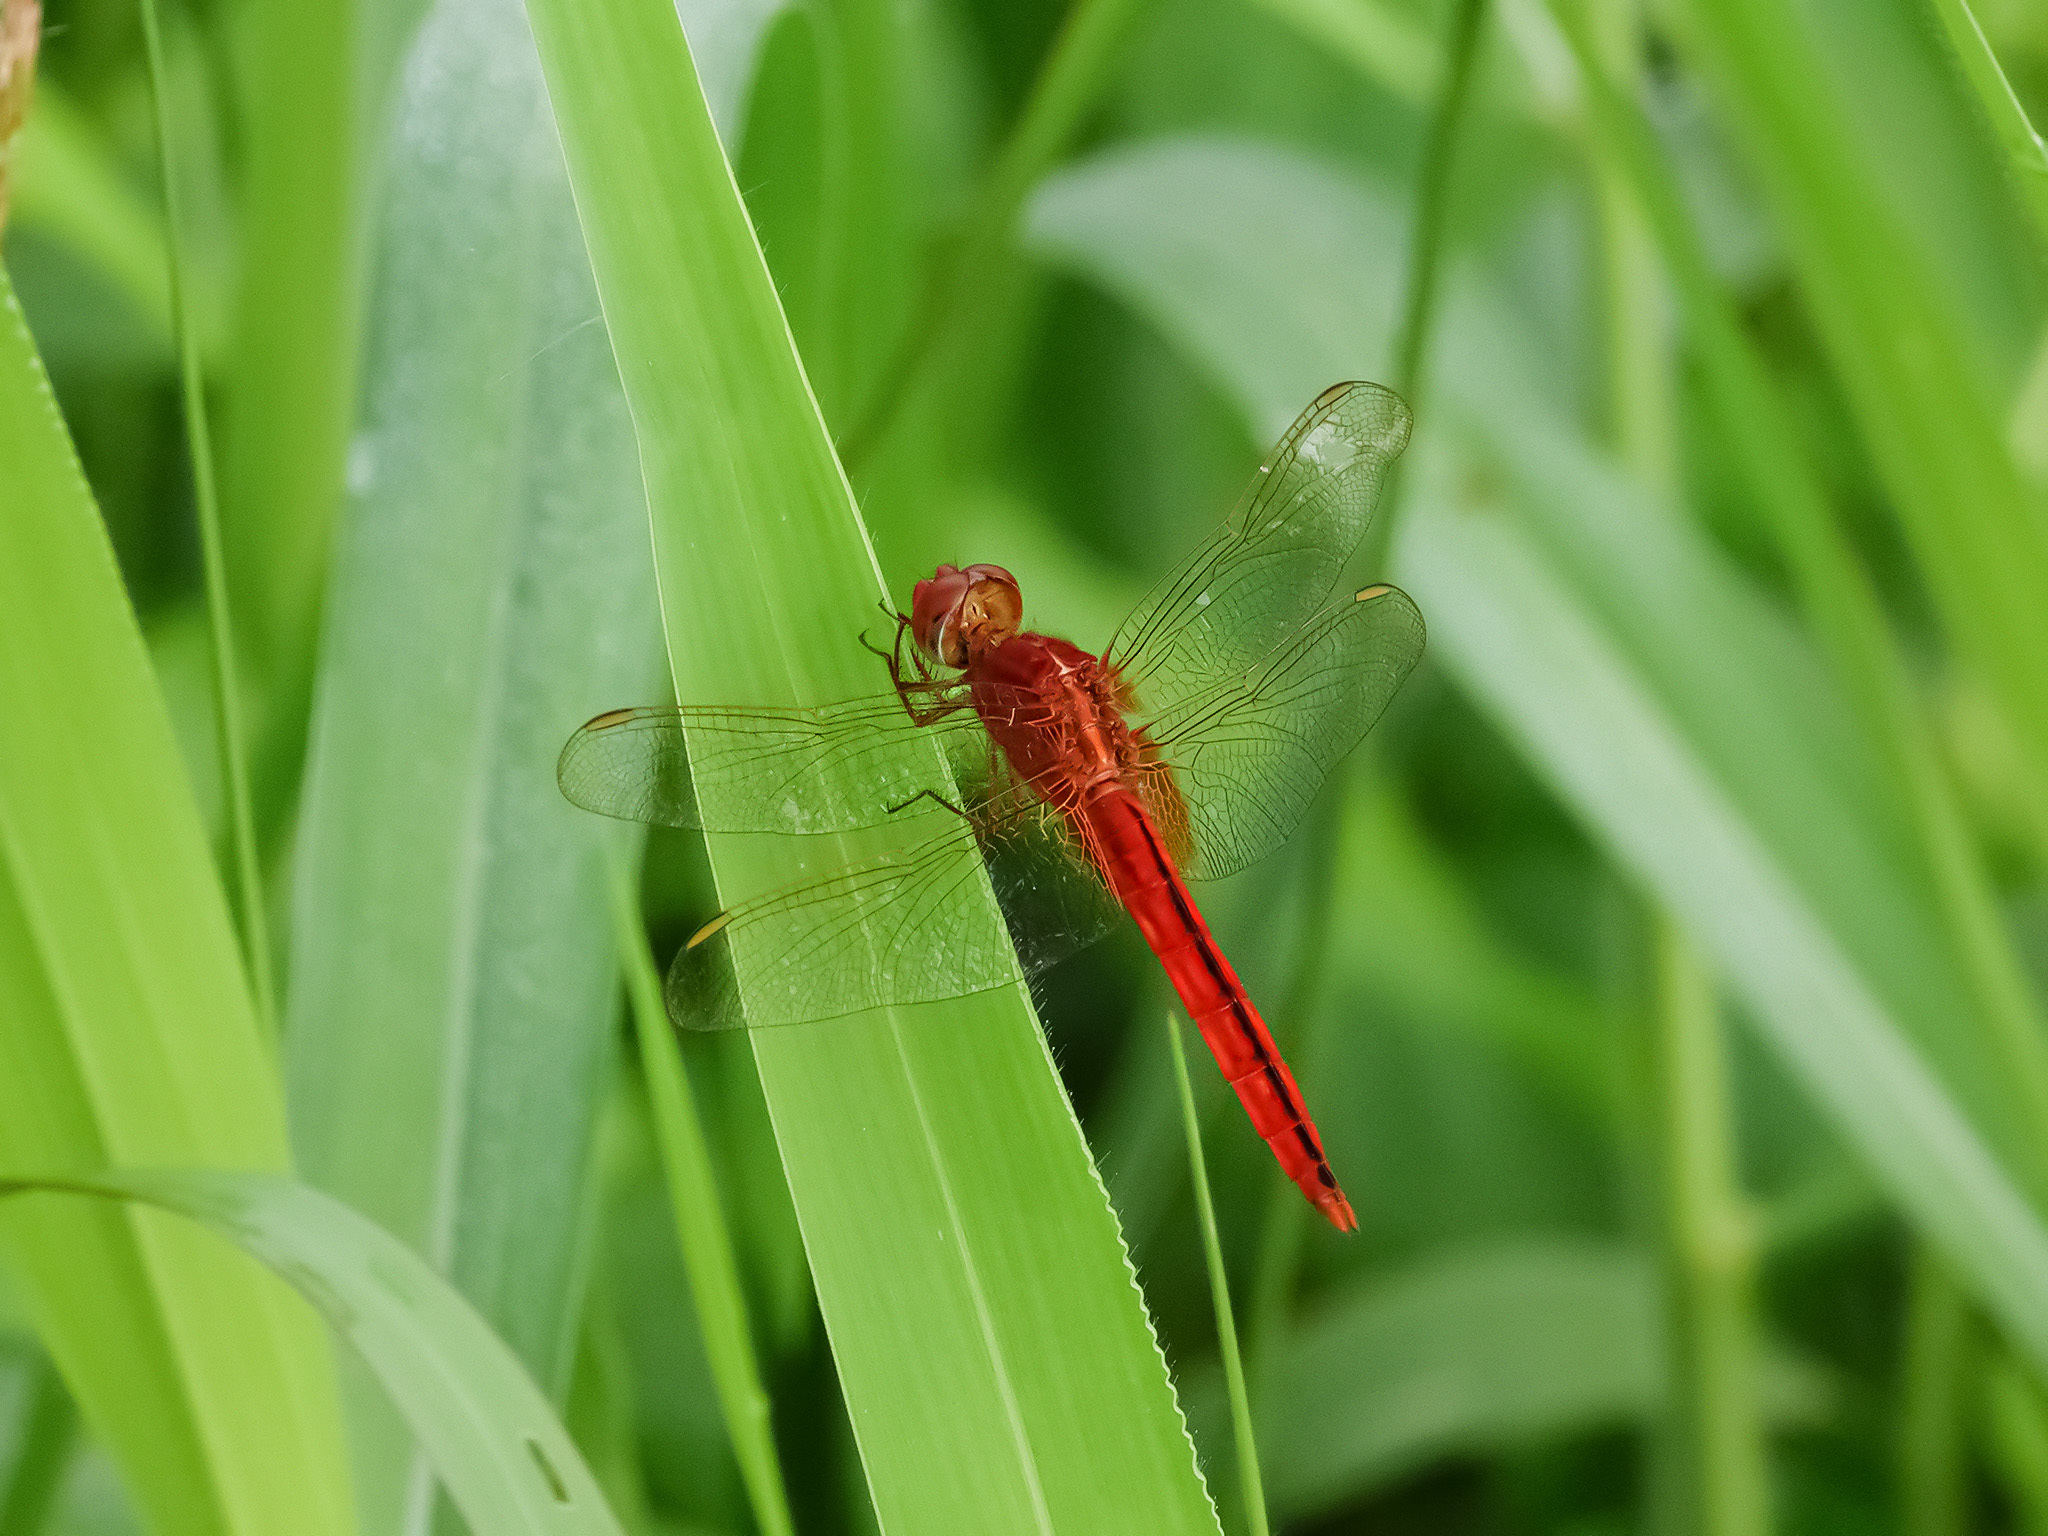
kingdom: Animalia
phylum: Arthropoda
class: Insecta
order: Odonata
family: Libellulidae
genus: Crocothemis
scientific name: Crocothemis servilia
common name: Scarlet skimmer
